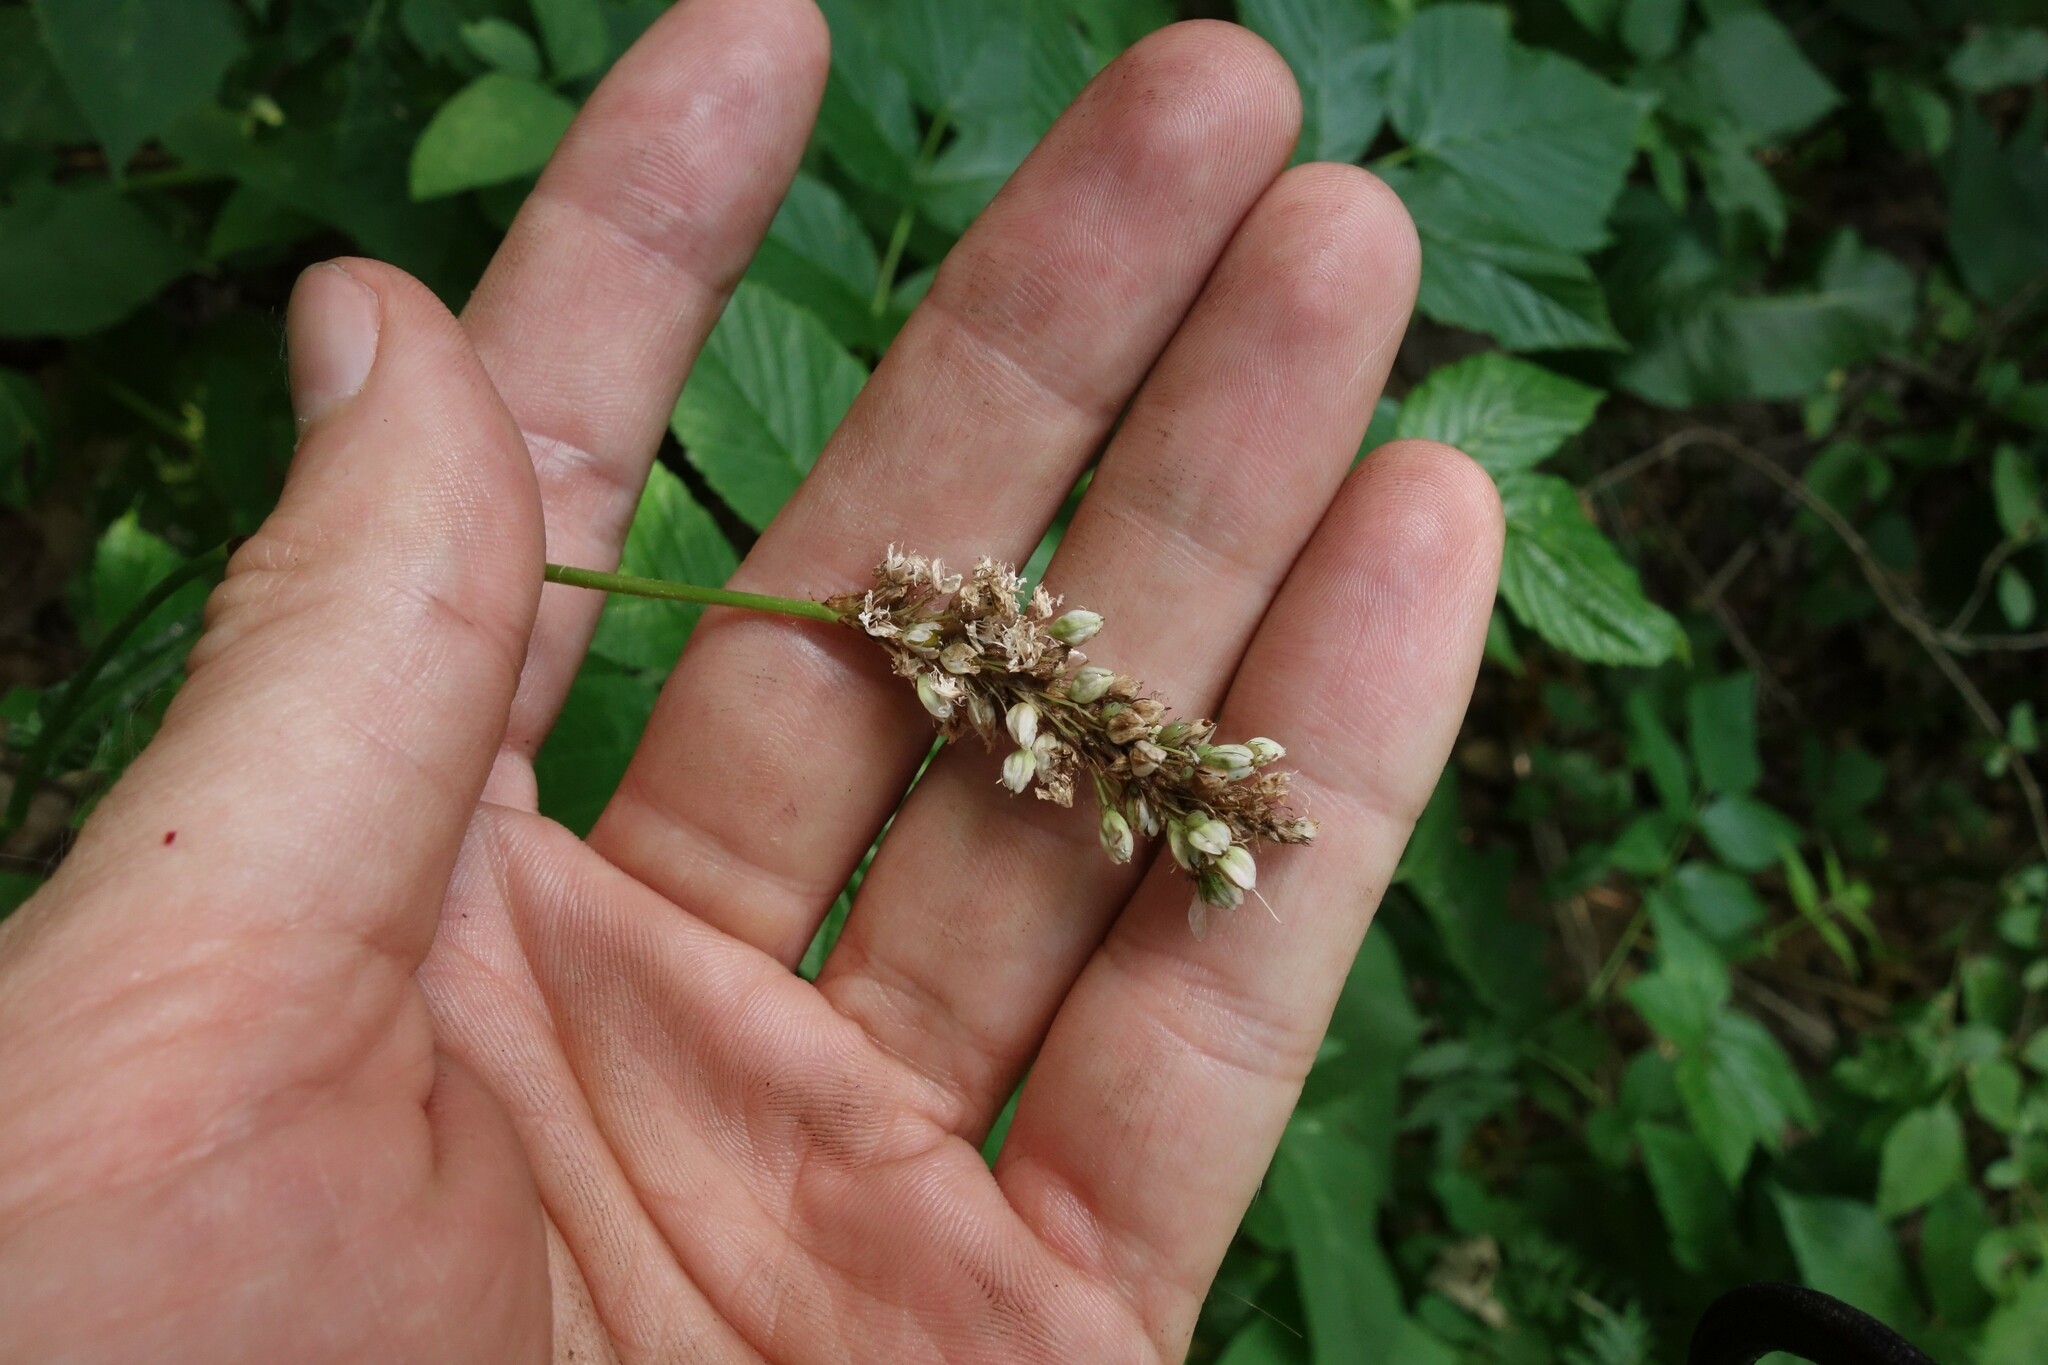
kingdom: Plantae
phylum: Tracheophyta
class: Magnoliopsida
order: Caryophyllales
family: Polygonaceae
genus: Bistorta
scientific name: Bistorta officinalis
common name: Common bistort
